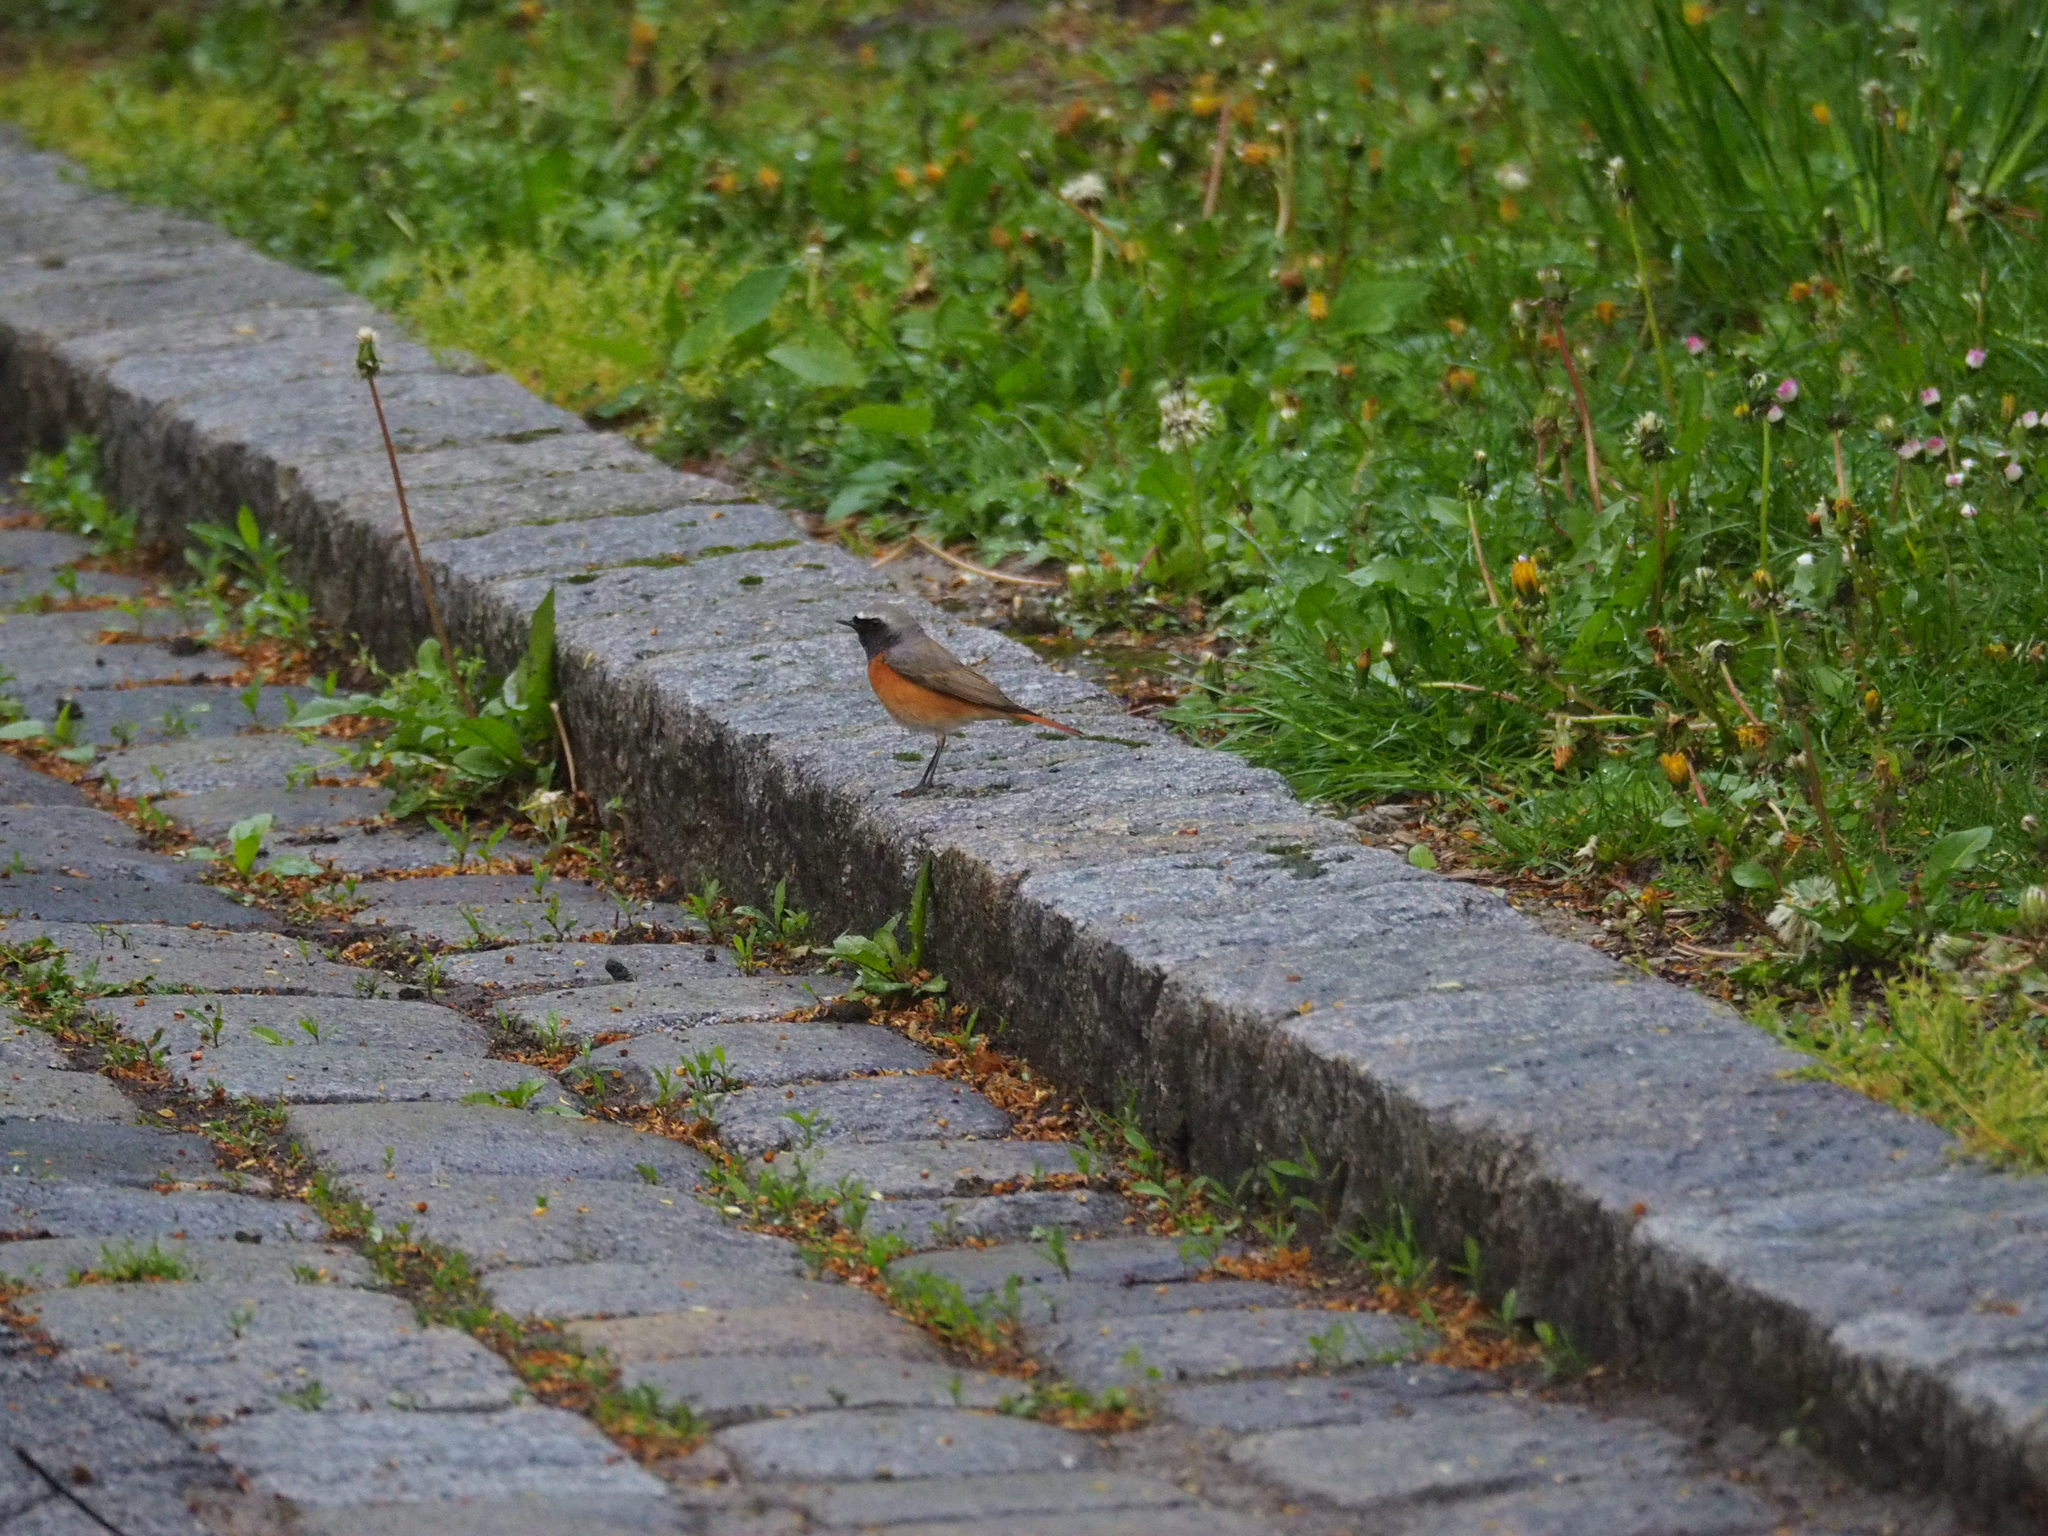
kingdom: Animalia
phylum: Chordata
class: Aves
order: Passeriformes
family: Muscicapidae
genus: Phoenicurus
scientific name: Phoenicurus phoenicurus
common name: Common redstart
